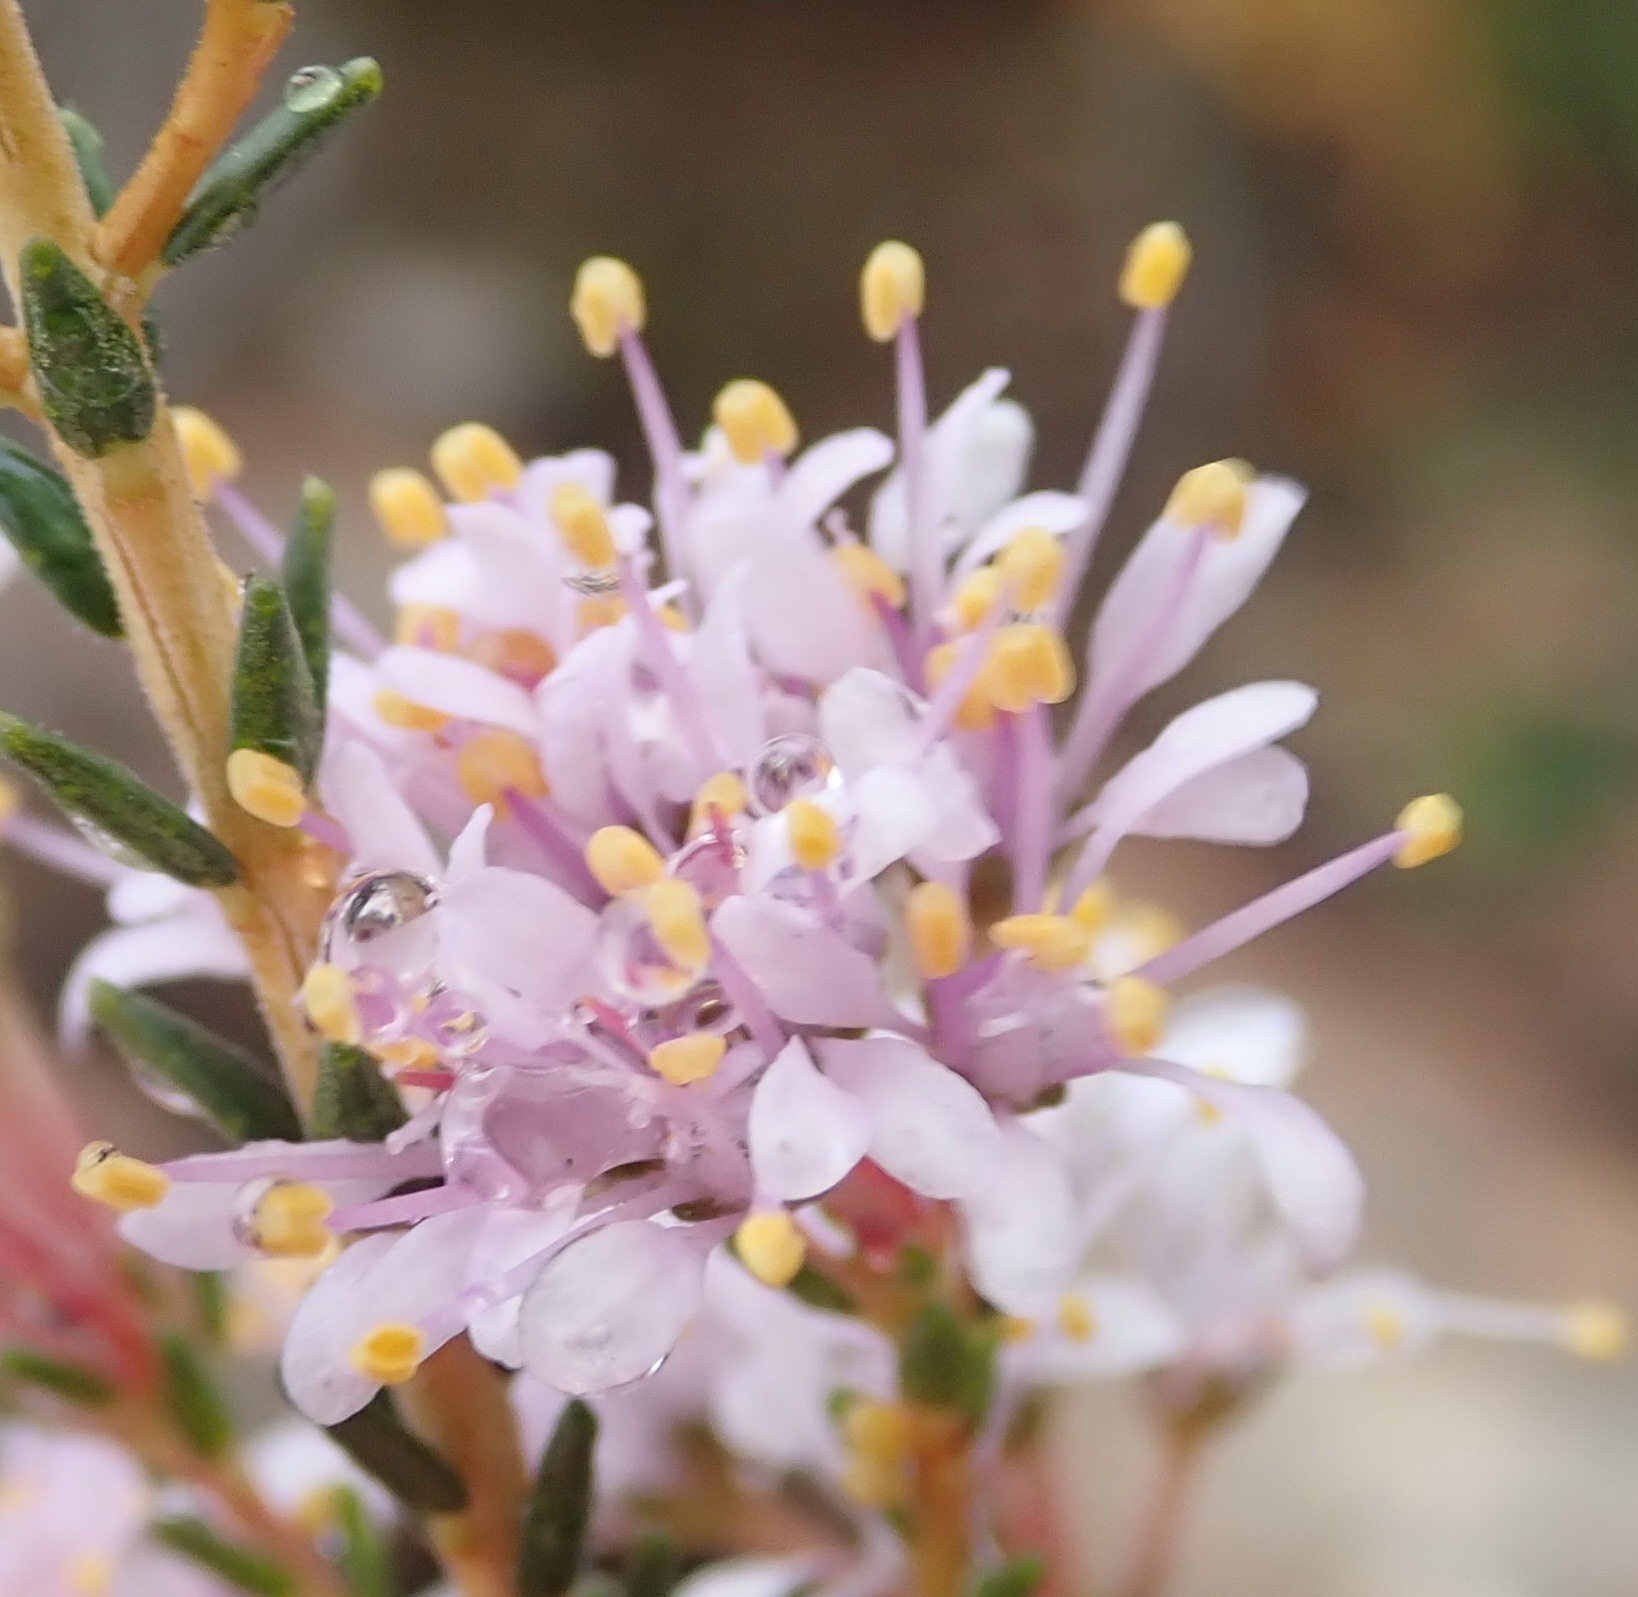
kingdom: Plantae
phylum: Tracheophyta
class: Magnoliopsida
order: Sapindales
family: Rutaceae
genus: Agathosma
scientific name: Agathosma capensis
